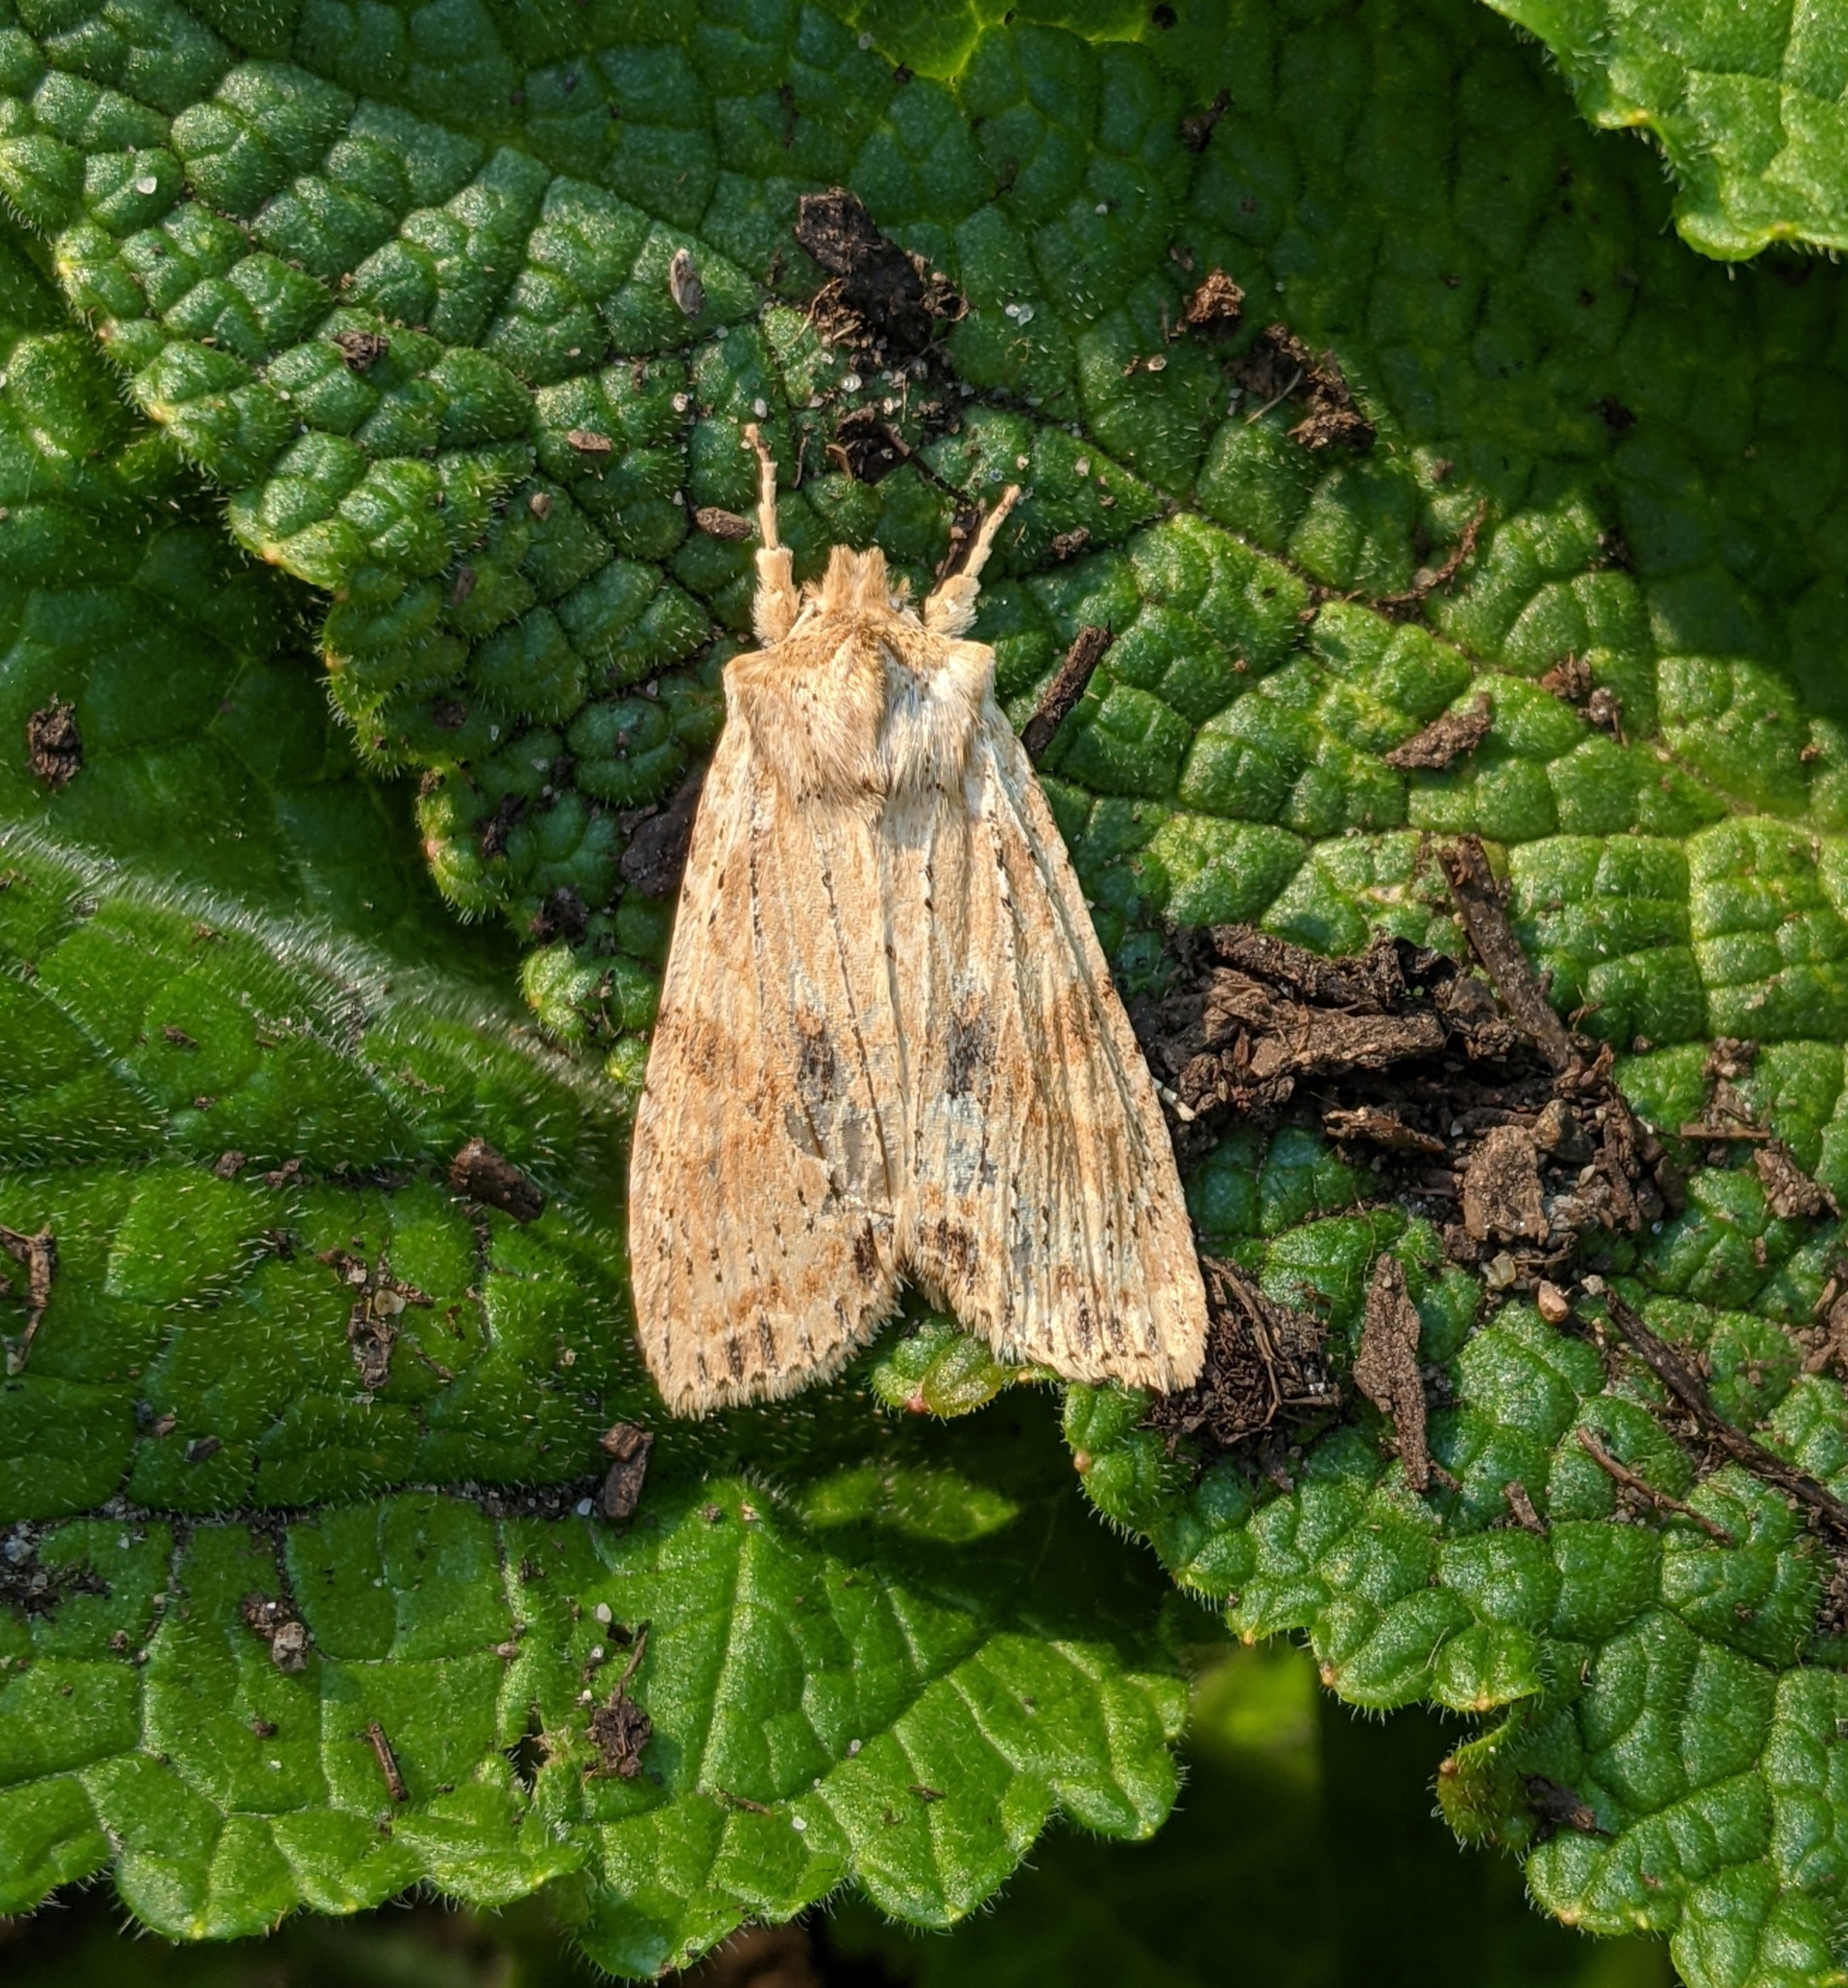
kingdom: Animalia
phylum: Arthropoda
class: Insecta
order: Lepidoptera
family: Noctuidae
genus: Lithophane
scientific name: Lithophane innominata
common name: Nameless pinion moth
